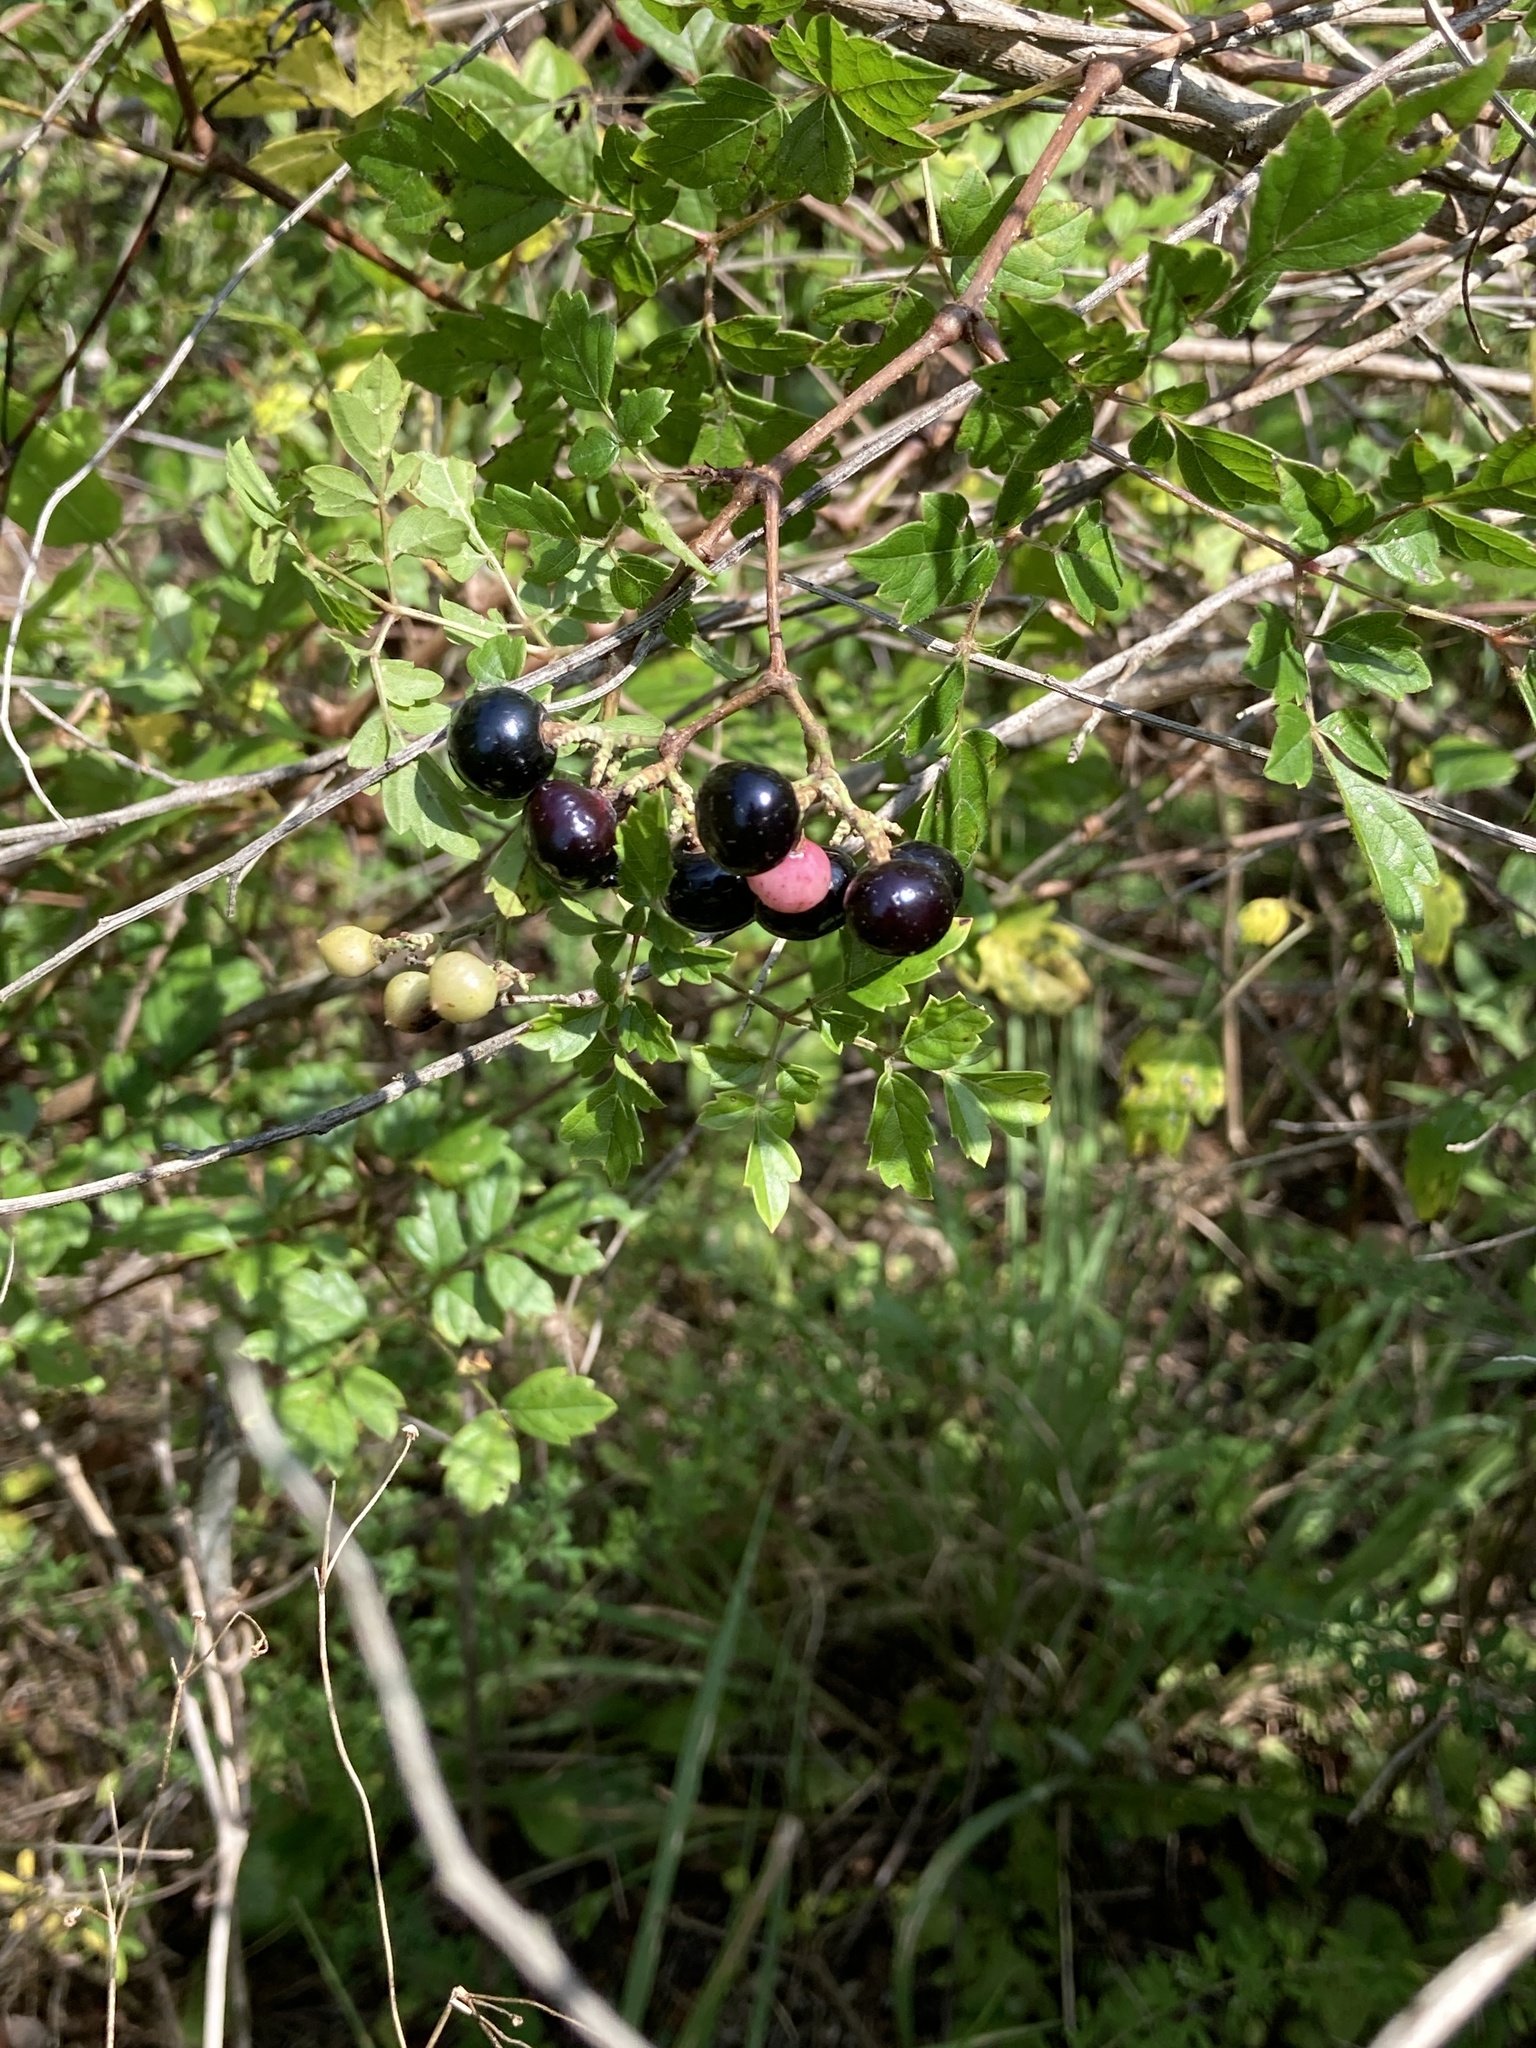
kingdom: Plantae
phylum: Tracheophyta
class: Magnoliopsida
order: Vitales
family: Vitaceae
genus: Nekemias
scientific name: Nekemias arborea
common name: Peppervine
